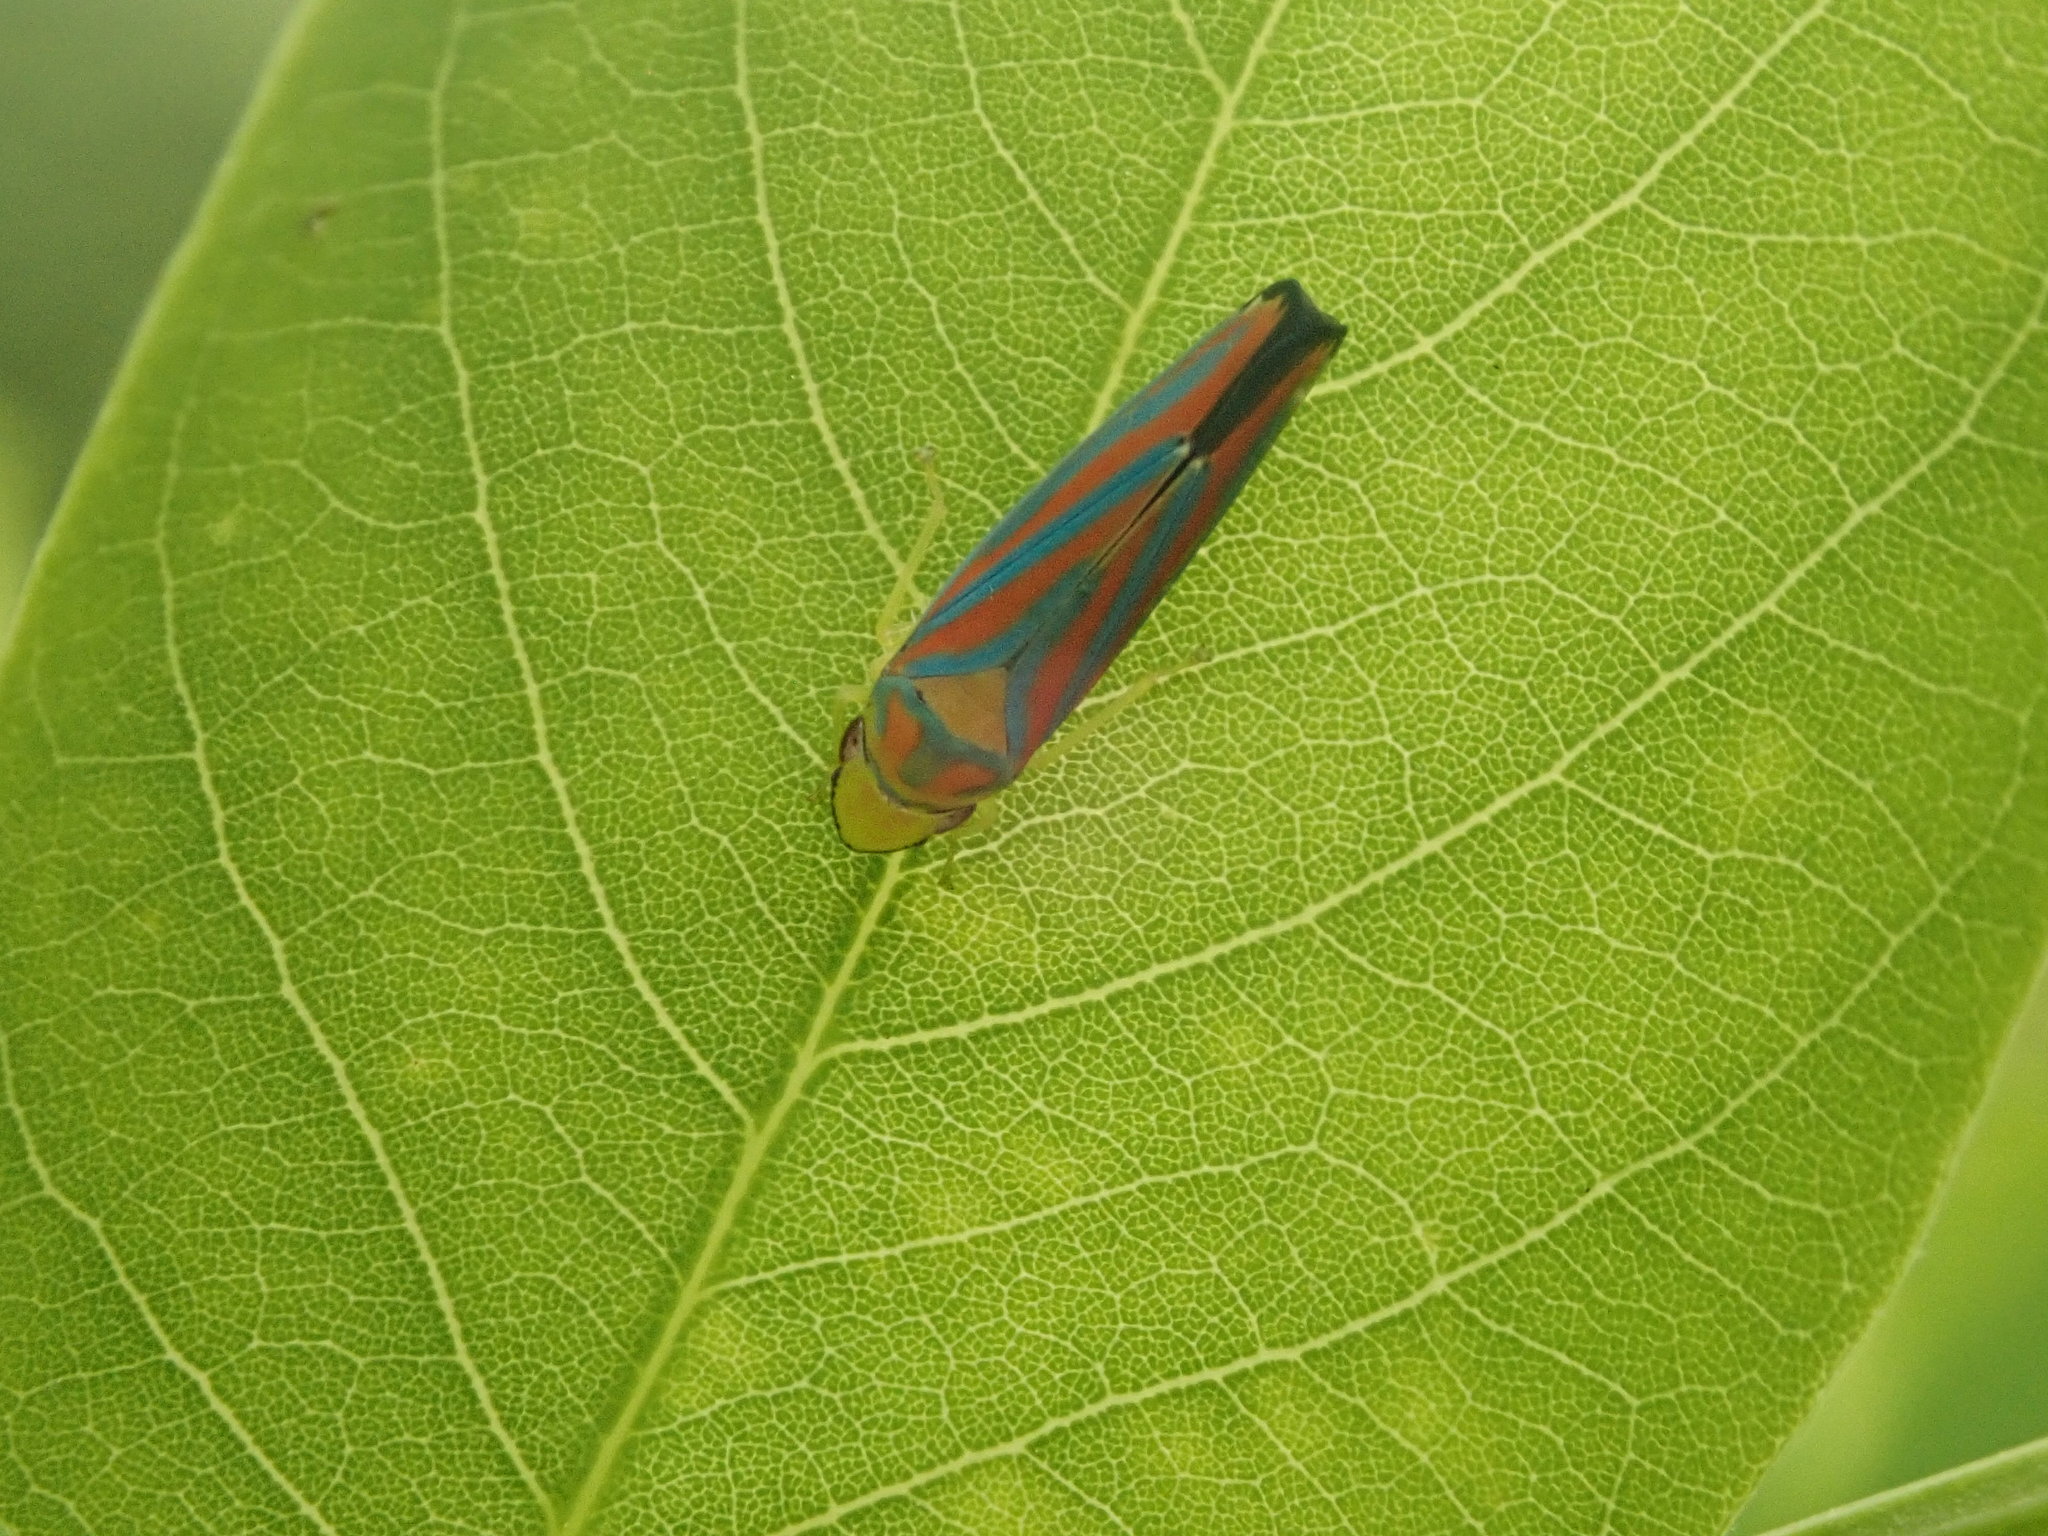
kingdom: Animalia
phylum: Arthropoda
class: Insecta
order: Hemiptera
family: Cicadellidae
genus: Graphocephala
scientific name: Graphocephala coccinea
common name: Candy-striped leafhopper
